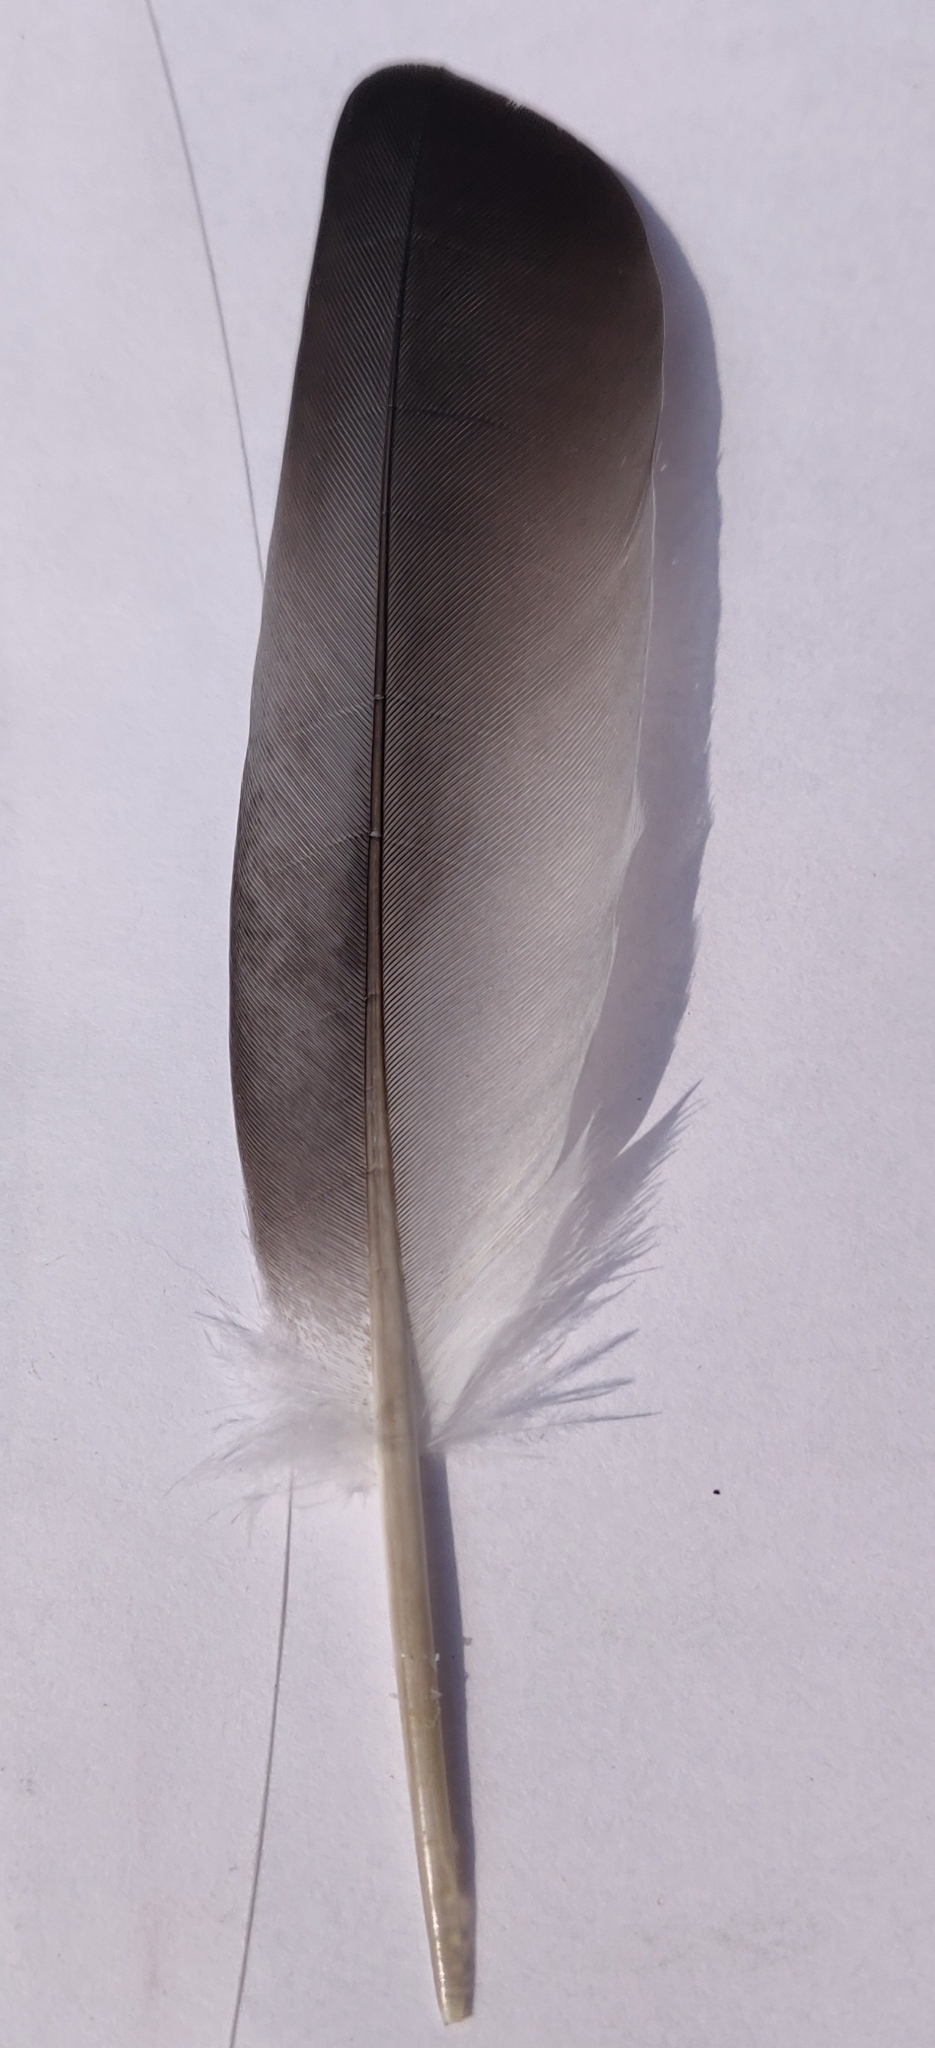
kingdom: Animalia
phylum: Chordata
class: Aves
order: Columbiformes
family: Columbidae
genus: Columba
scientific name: Columba livia
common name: Rock pigeon
